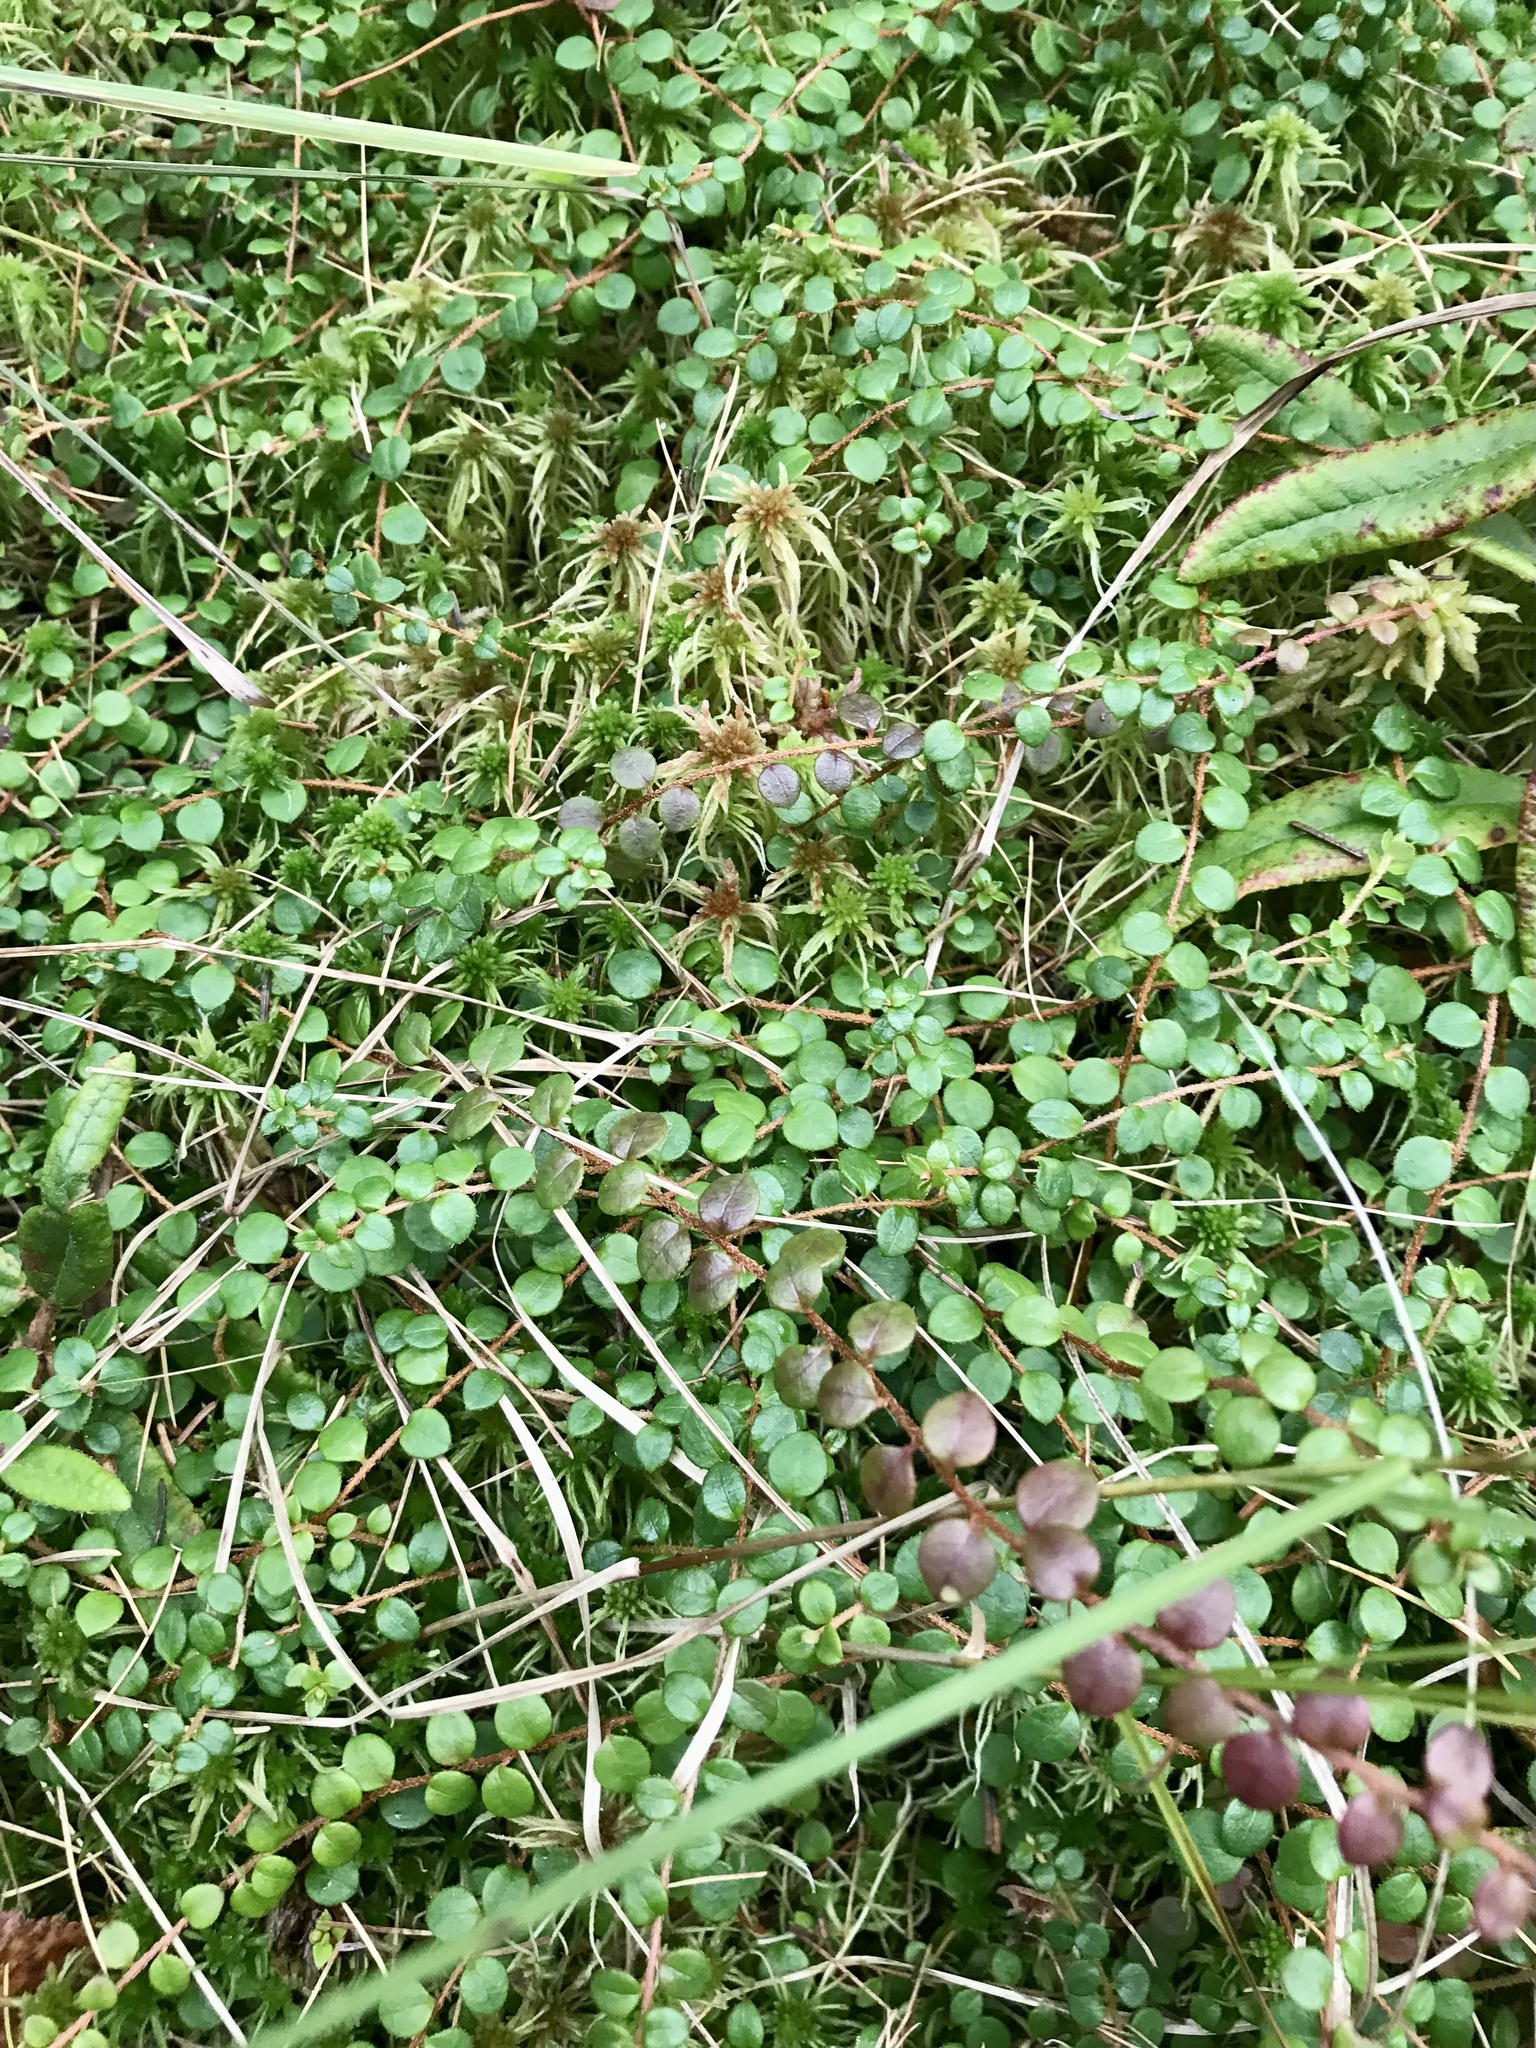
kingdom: Plantae
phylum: Tracheophyta
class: Magnoliopsida
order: Ericales
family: Ericaceae
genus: Gaultheria
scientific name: Gaultheria hispidula
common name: Cancer wintergreen
